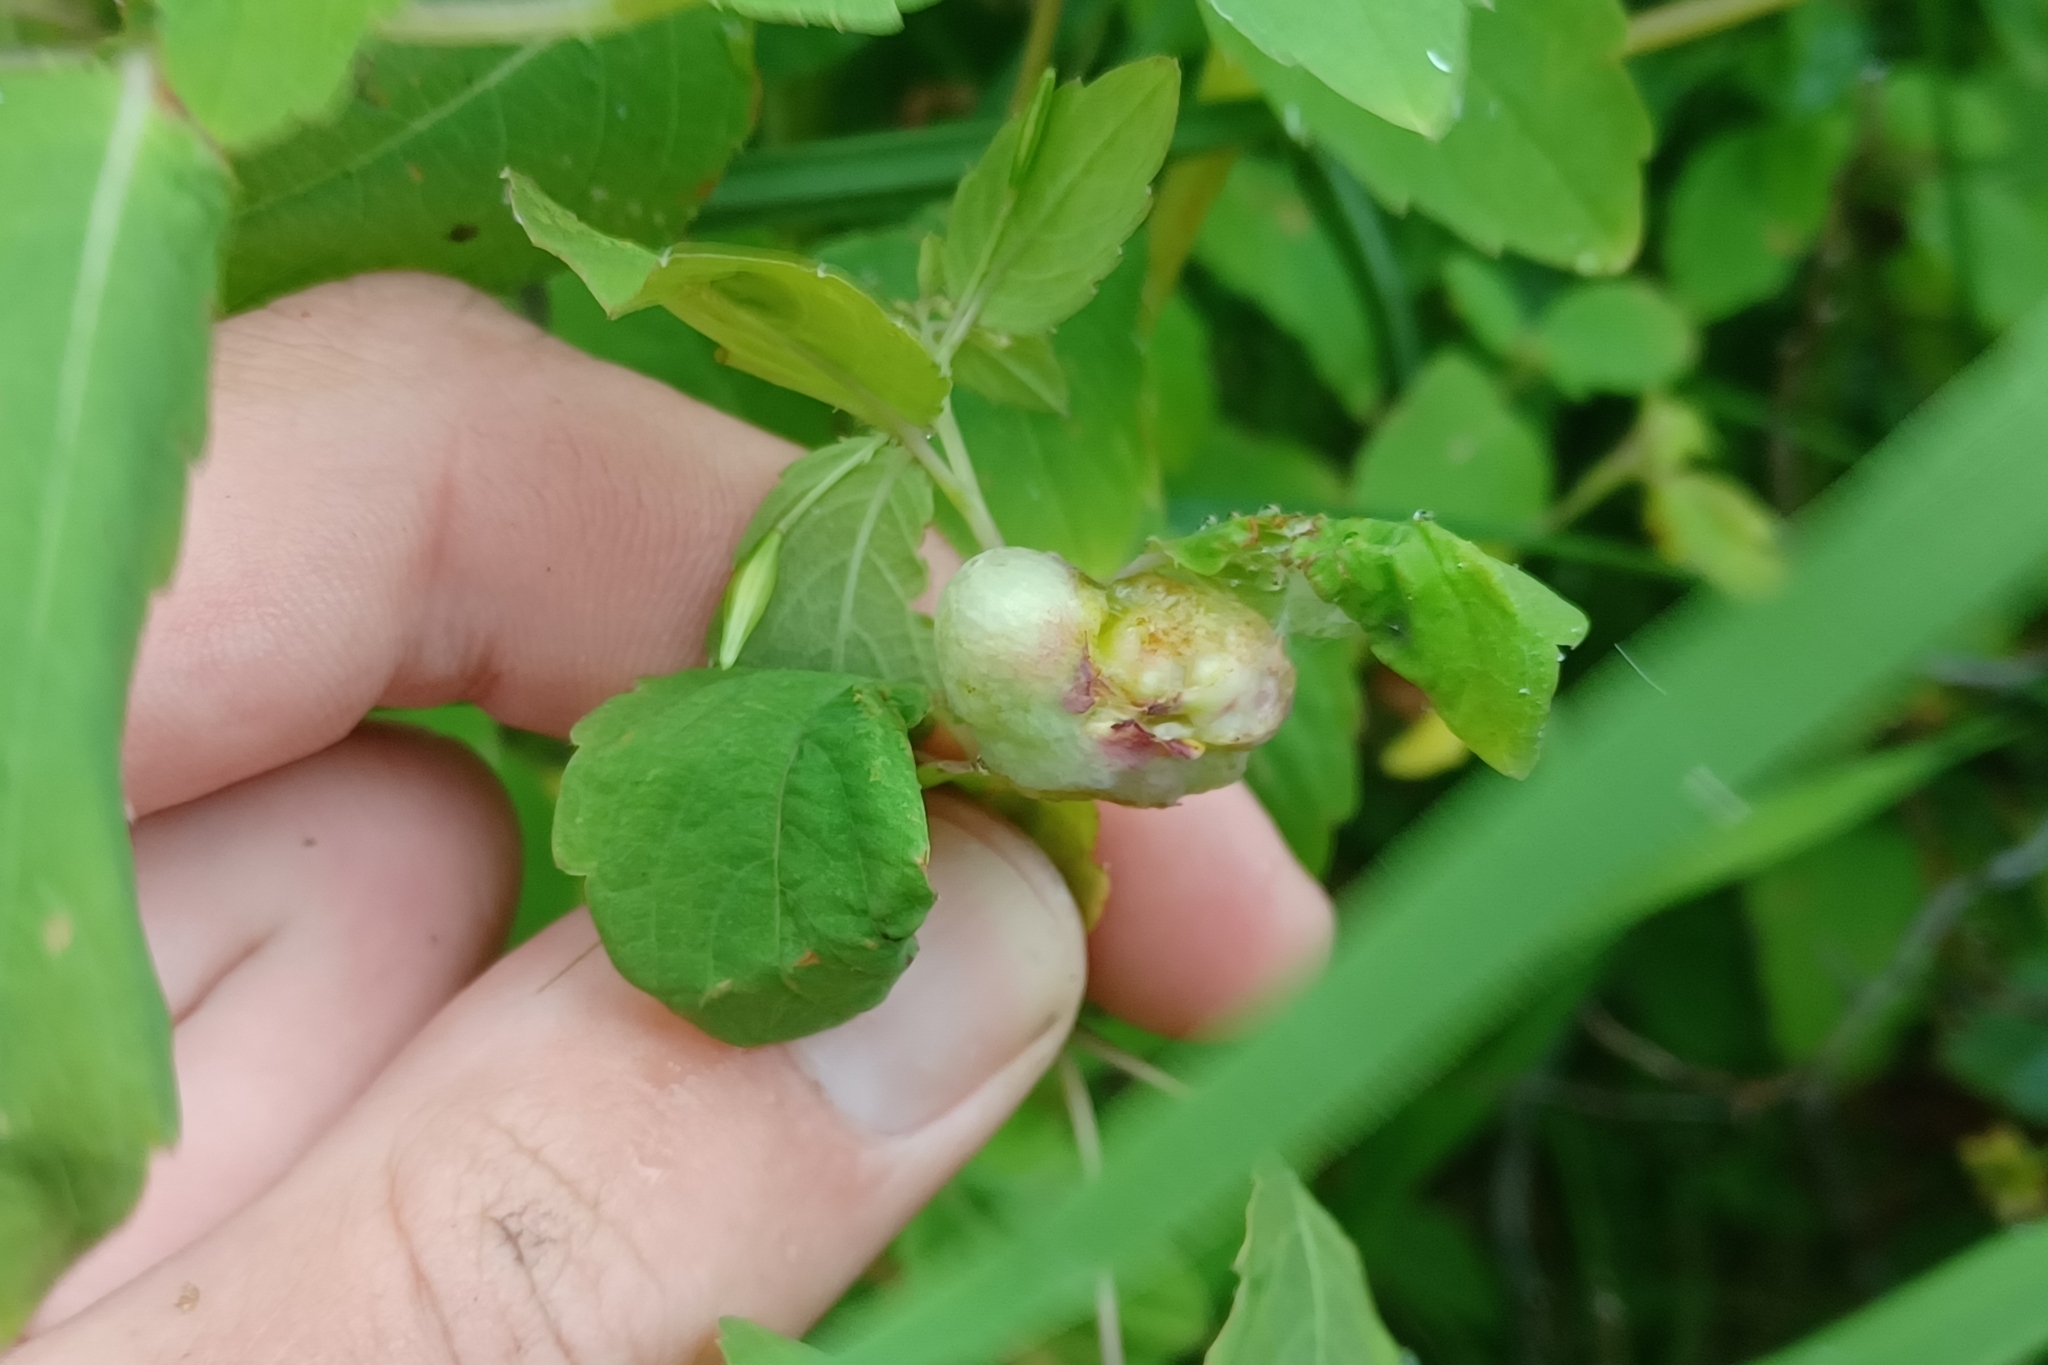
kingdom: Animalia
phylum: Arthropoda
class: Insecta
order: Diptera
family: Cecidomyiidae
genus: Schizomyia
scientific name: Schizomyia impatientis
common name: Jewelweed gall midge
